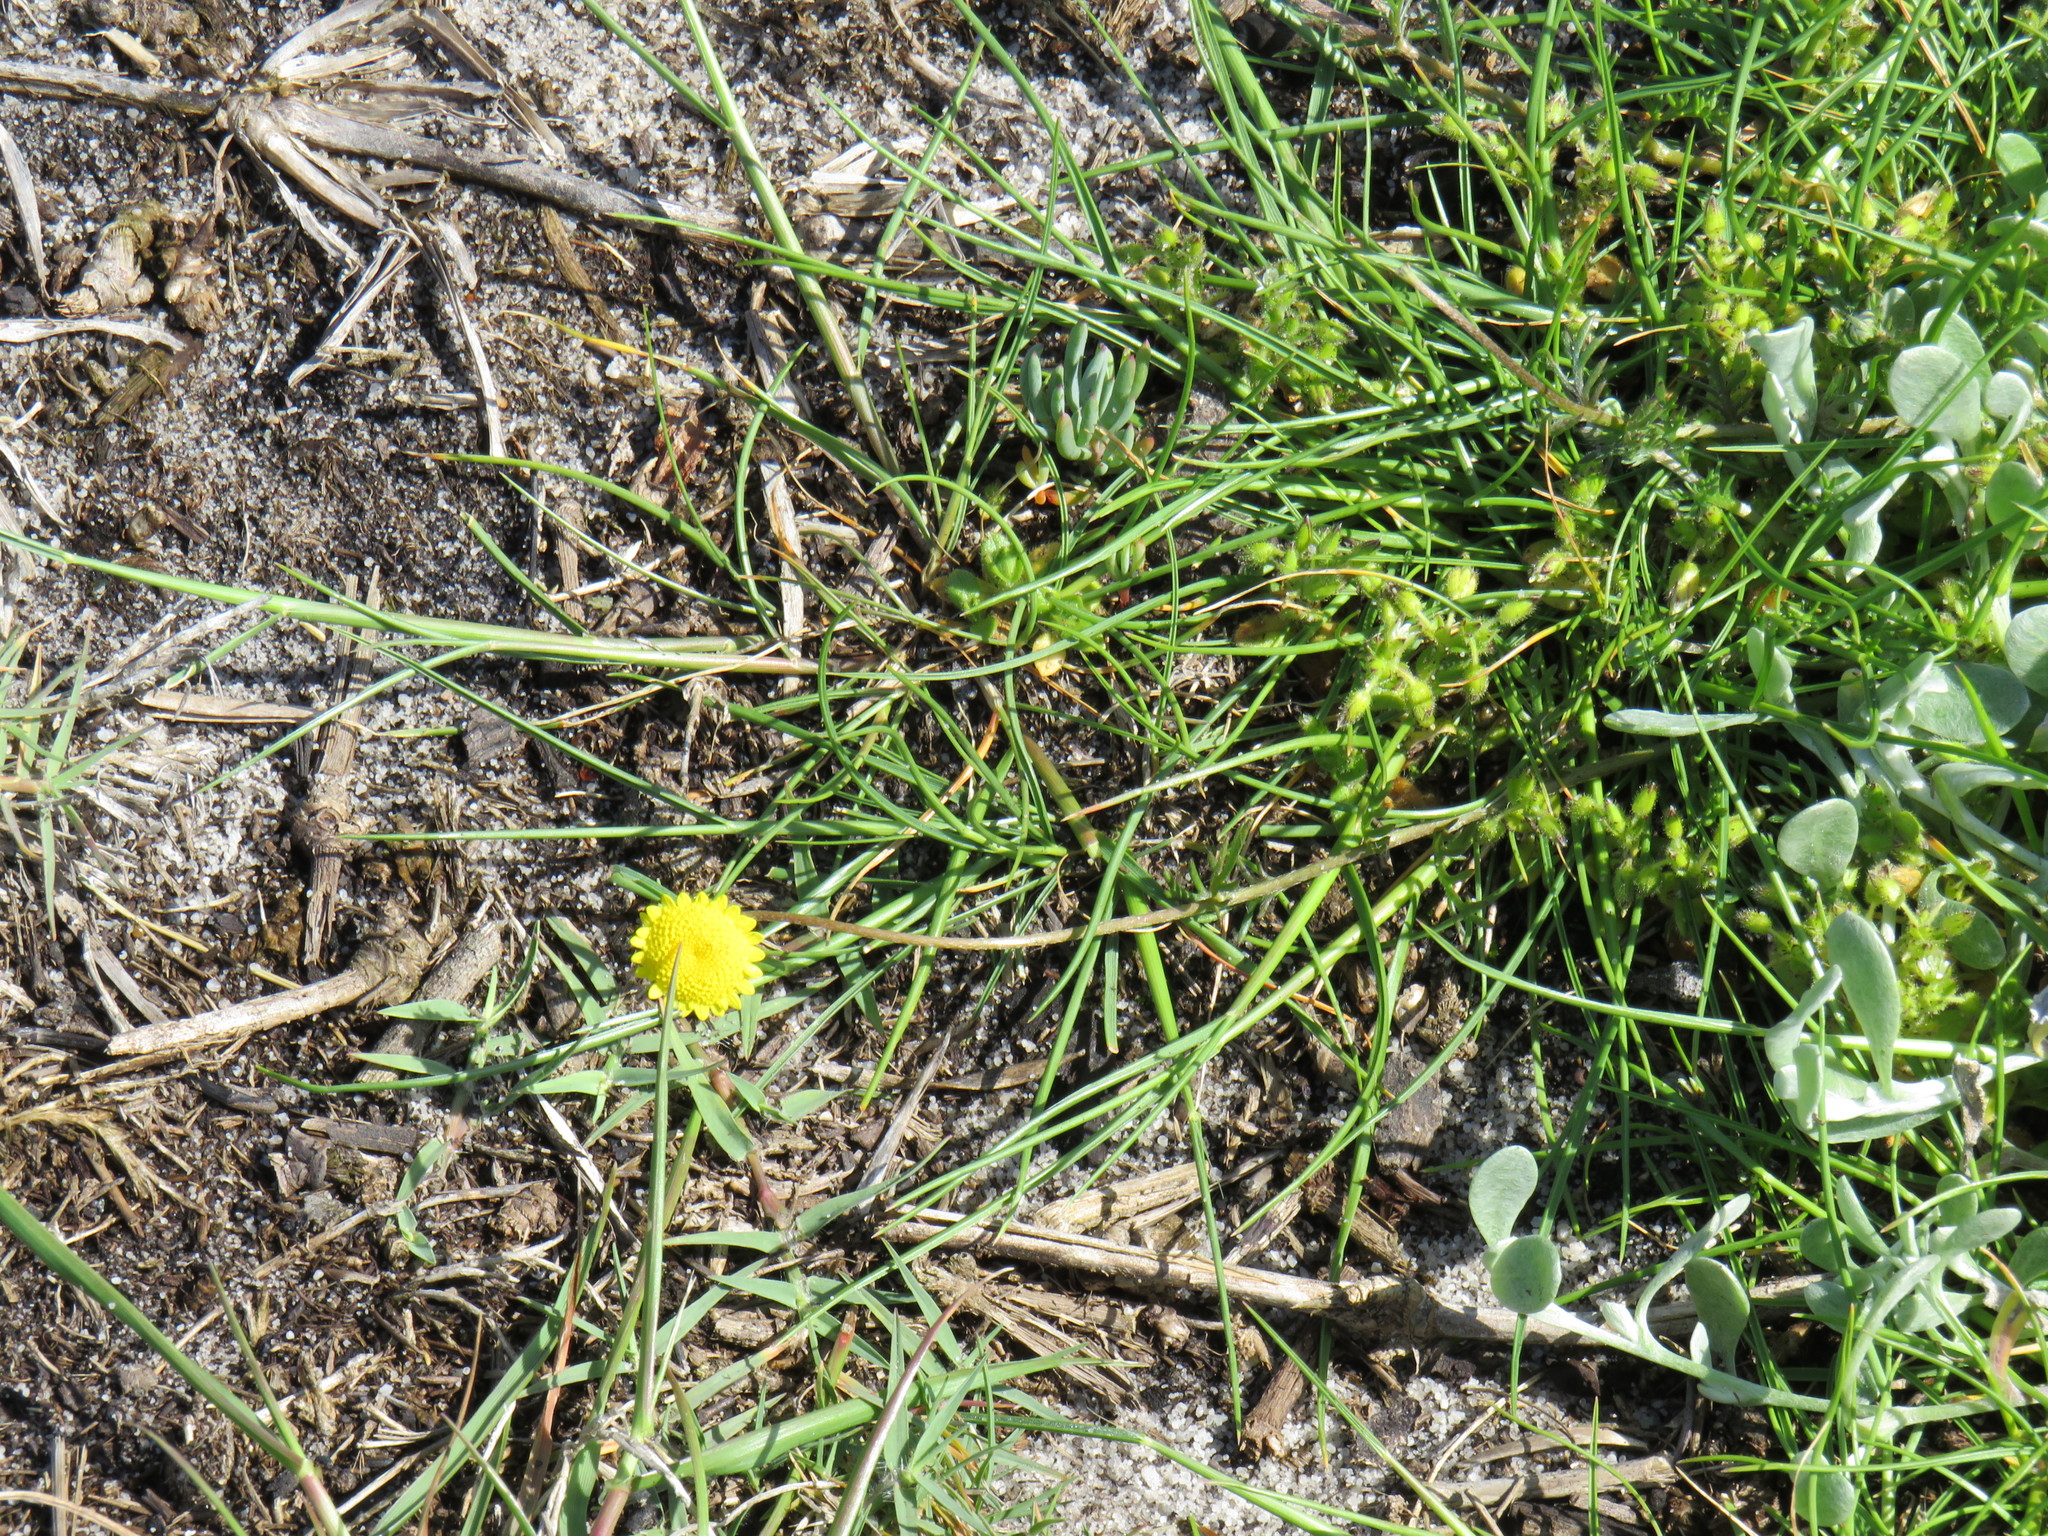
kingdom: Plantae
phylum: Tracheophyta
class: Magnoliopsida
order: Asterales
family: Asteraceae
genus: Cotula
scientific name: Cotula pruinosa
